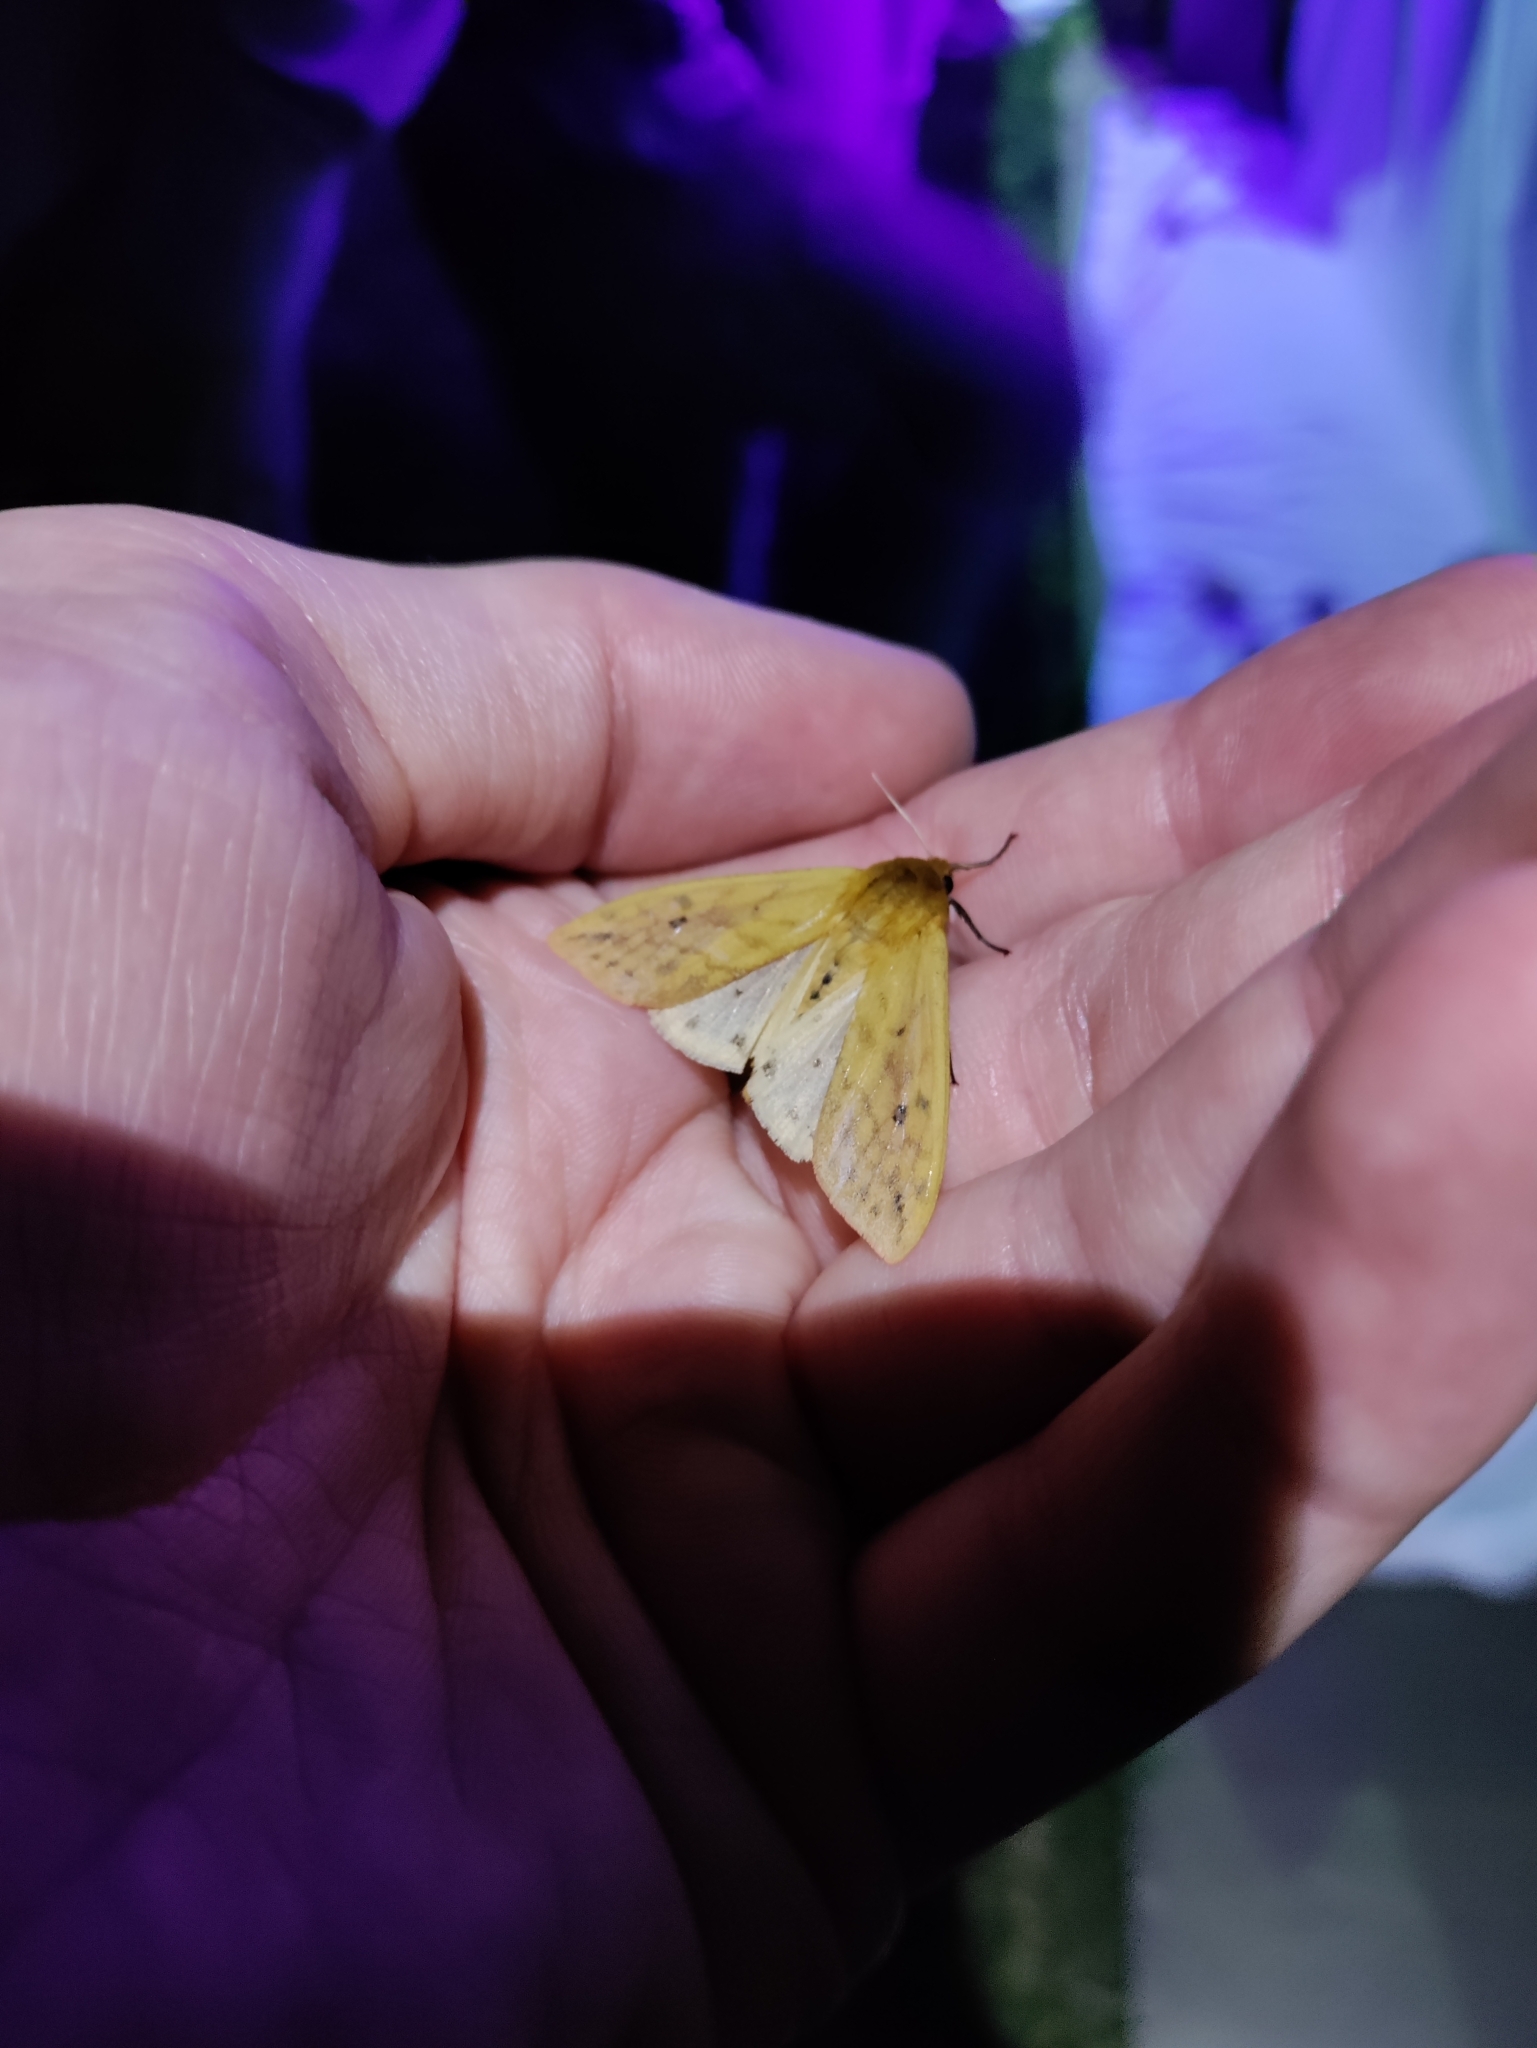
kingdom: Animalia
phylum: Arthropoda
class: Insecta
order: Lepidoptera
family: Erebidae
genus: Pyrrharctia
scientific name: Pyrrharctia isabella
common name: Isabella tiger moth
